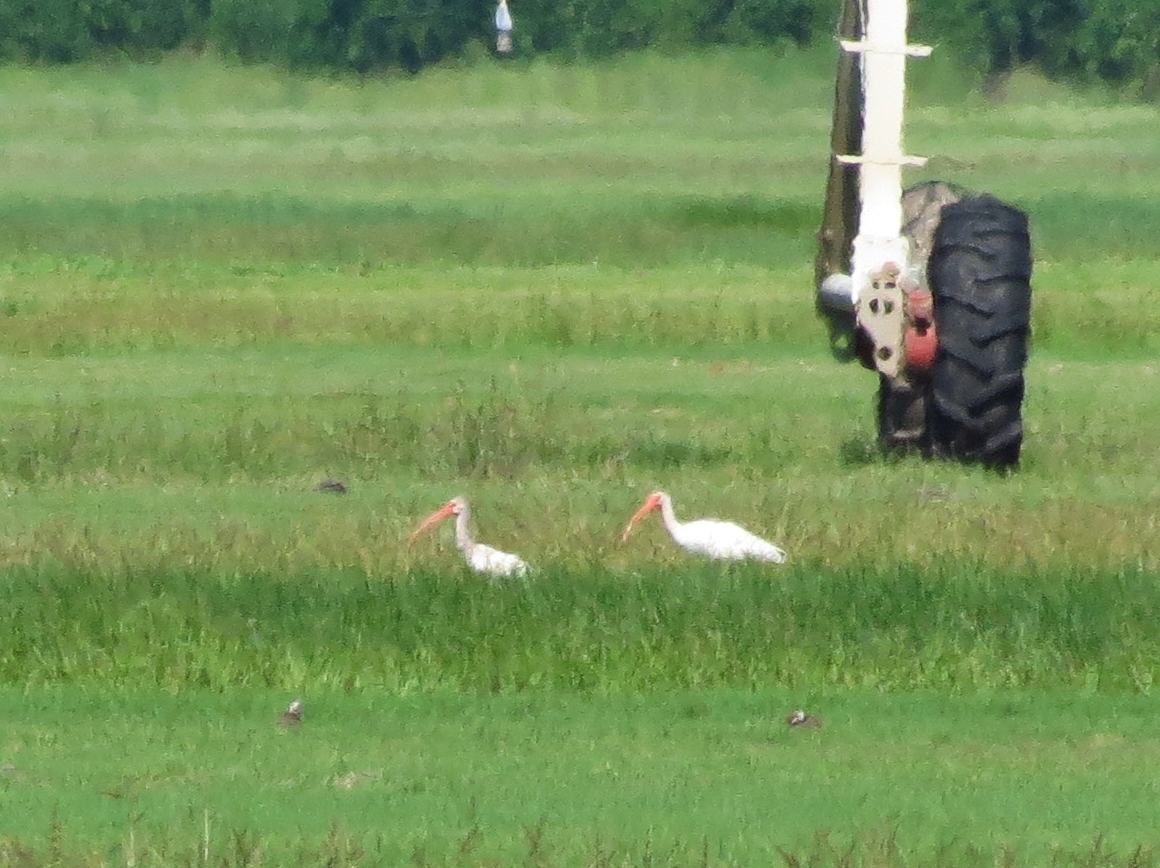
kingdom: Animalia
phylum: Chordata
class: Aves
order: Pelecaniformes
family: Threskiornithidae
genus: Eudocimus
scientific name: Eudocimus albus
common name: White ibis
